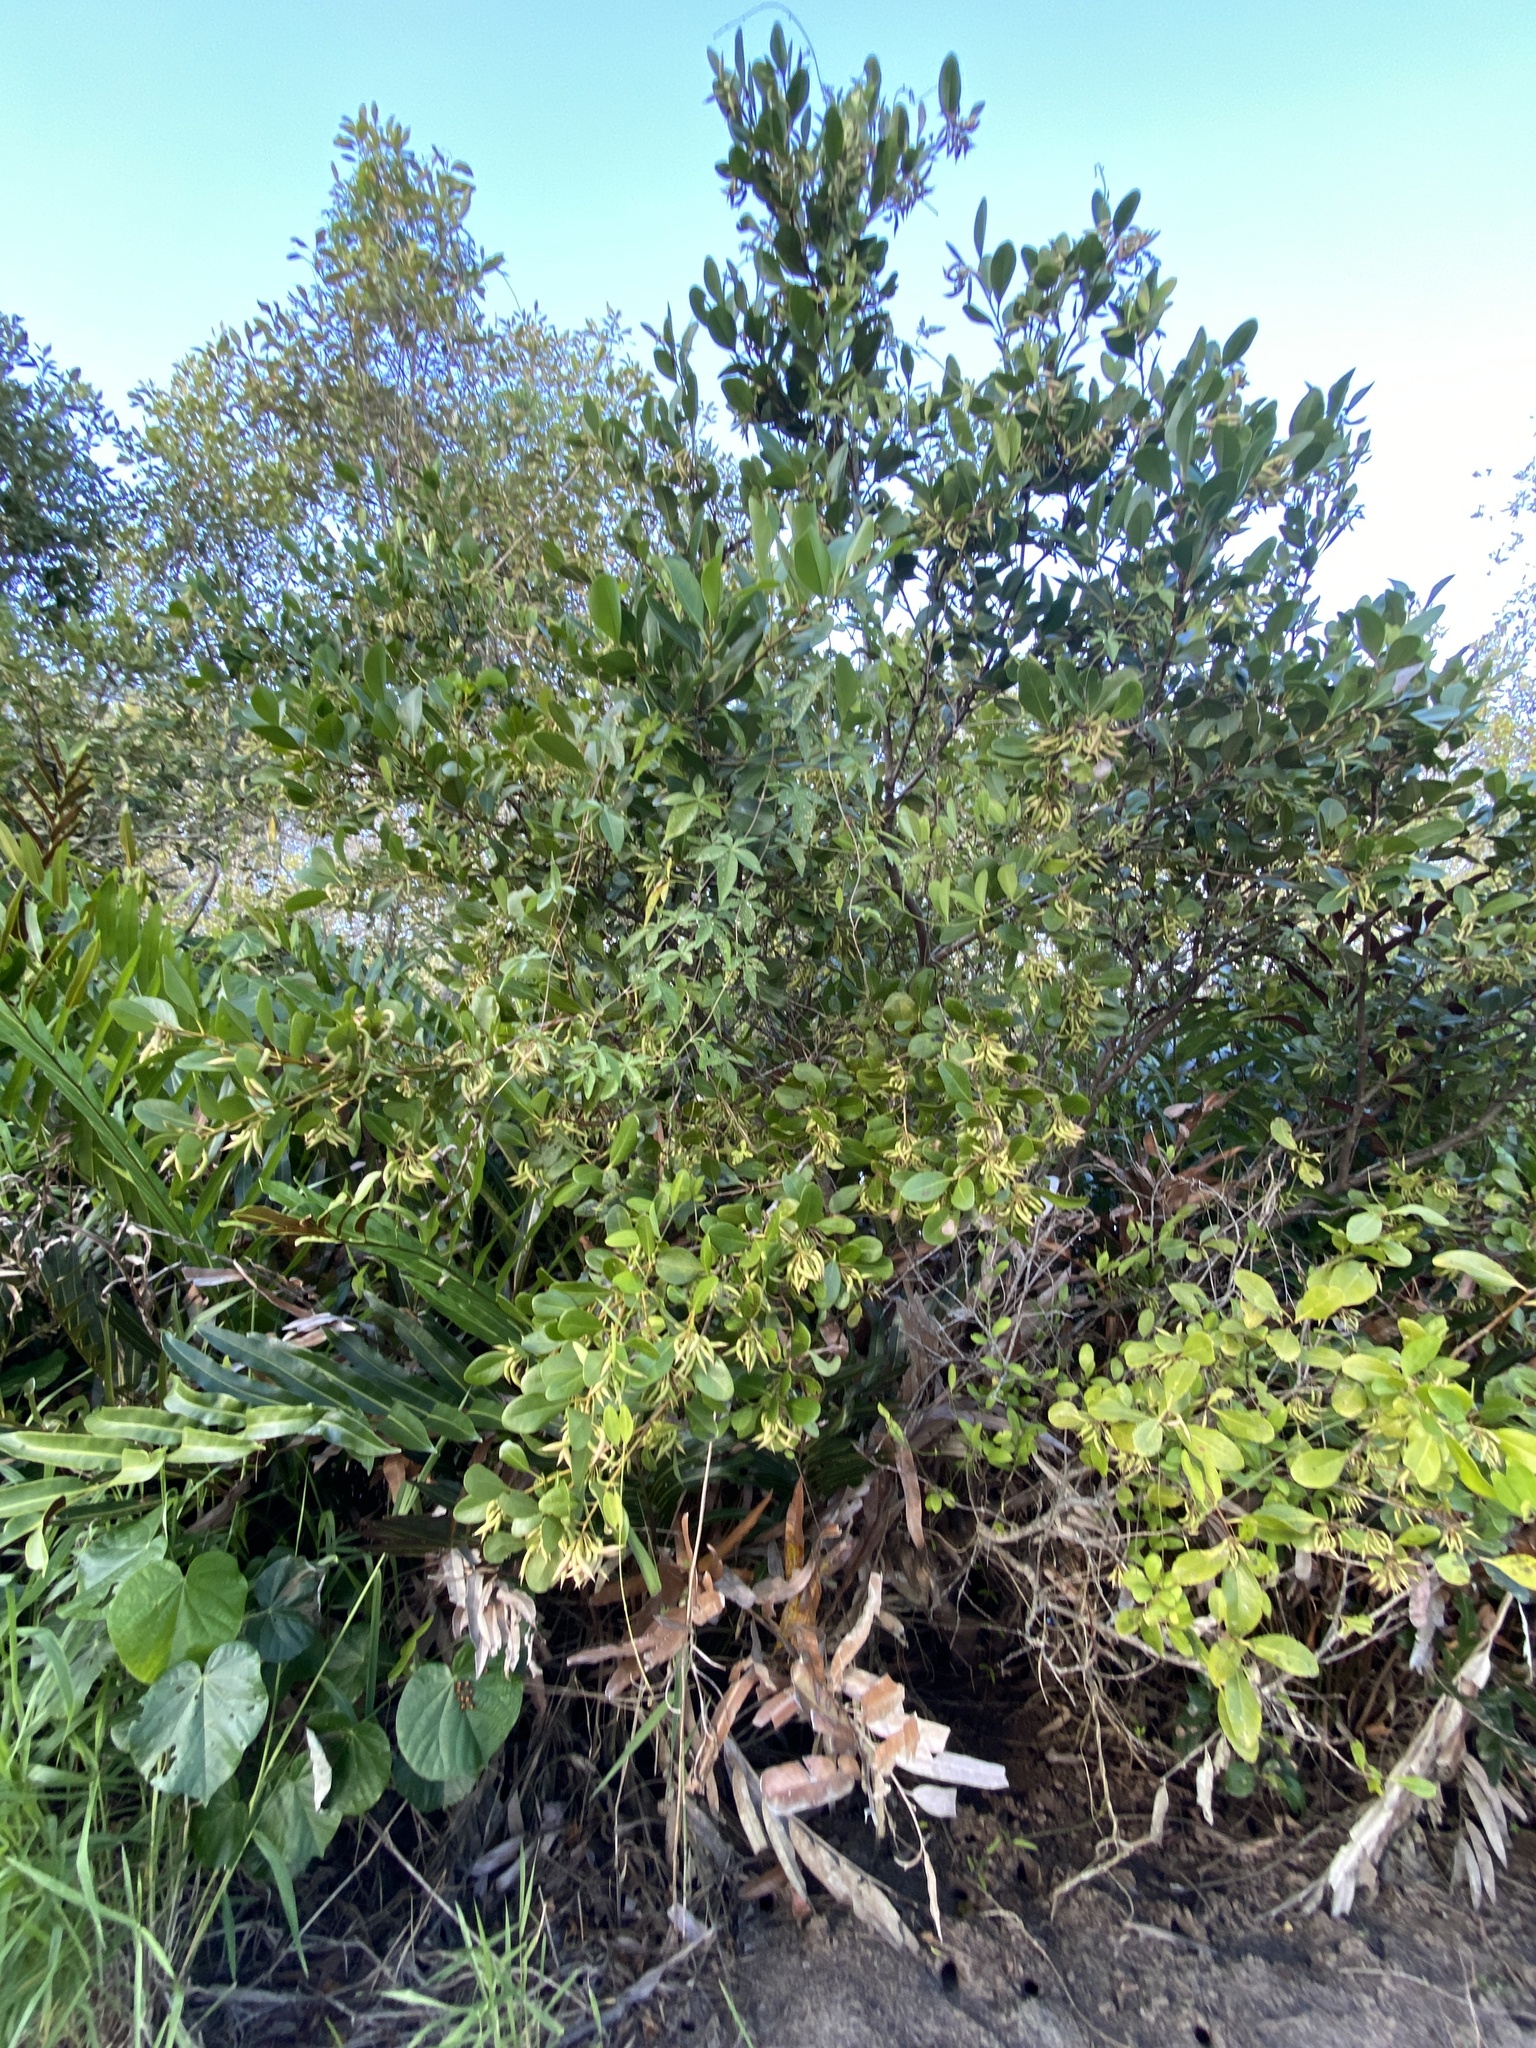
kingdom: Plantae
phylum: Tracheophyta
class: Magnoliopsida
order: Ericales
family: Primulaceae
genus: Aegiceras
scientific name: Aegiceras corniculatum
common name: River mangrove
